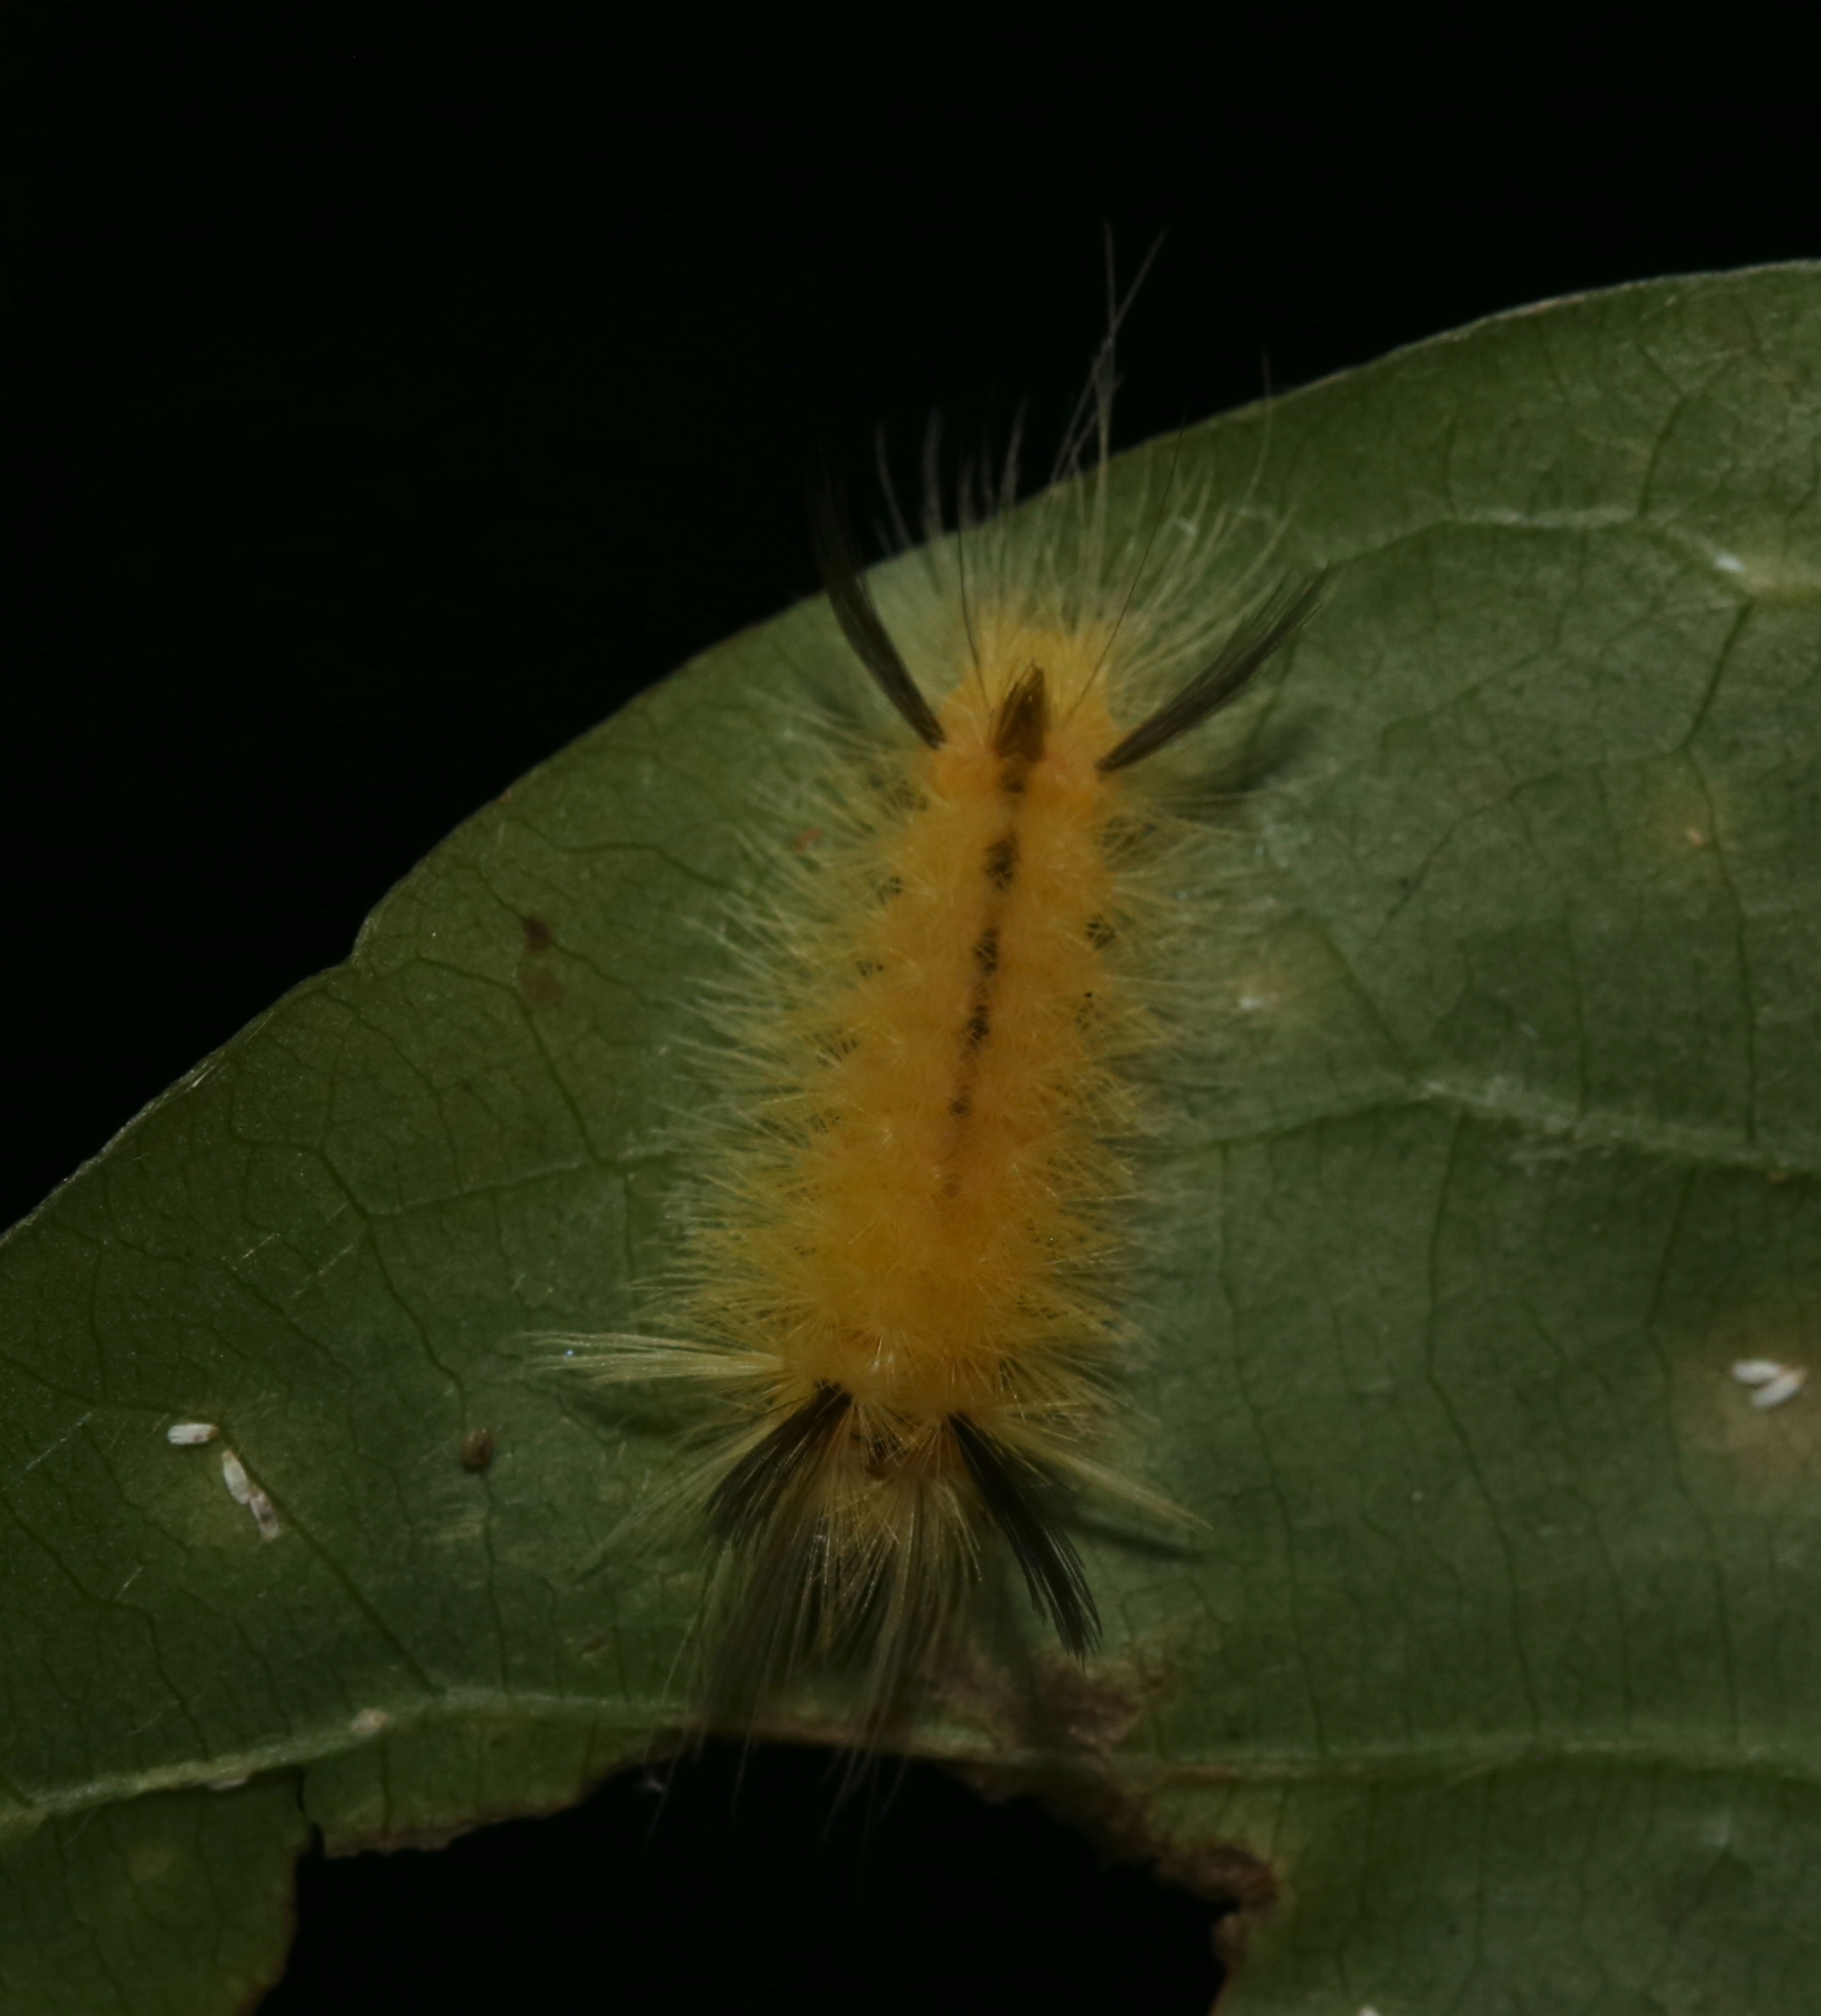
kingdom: Animalia
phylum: Arthropoda
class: Insecta
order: Lepidoptera
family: Erebidae
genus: Halysidota
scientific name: Halysidota tessellaris
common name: Banded tussock moth
